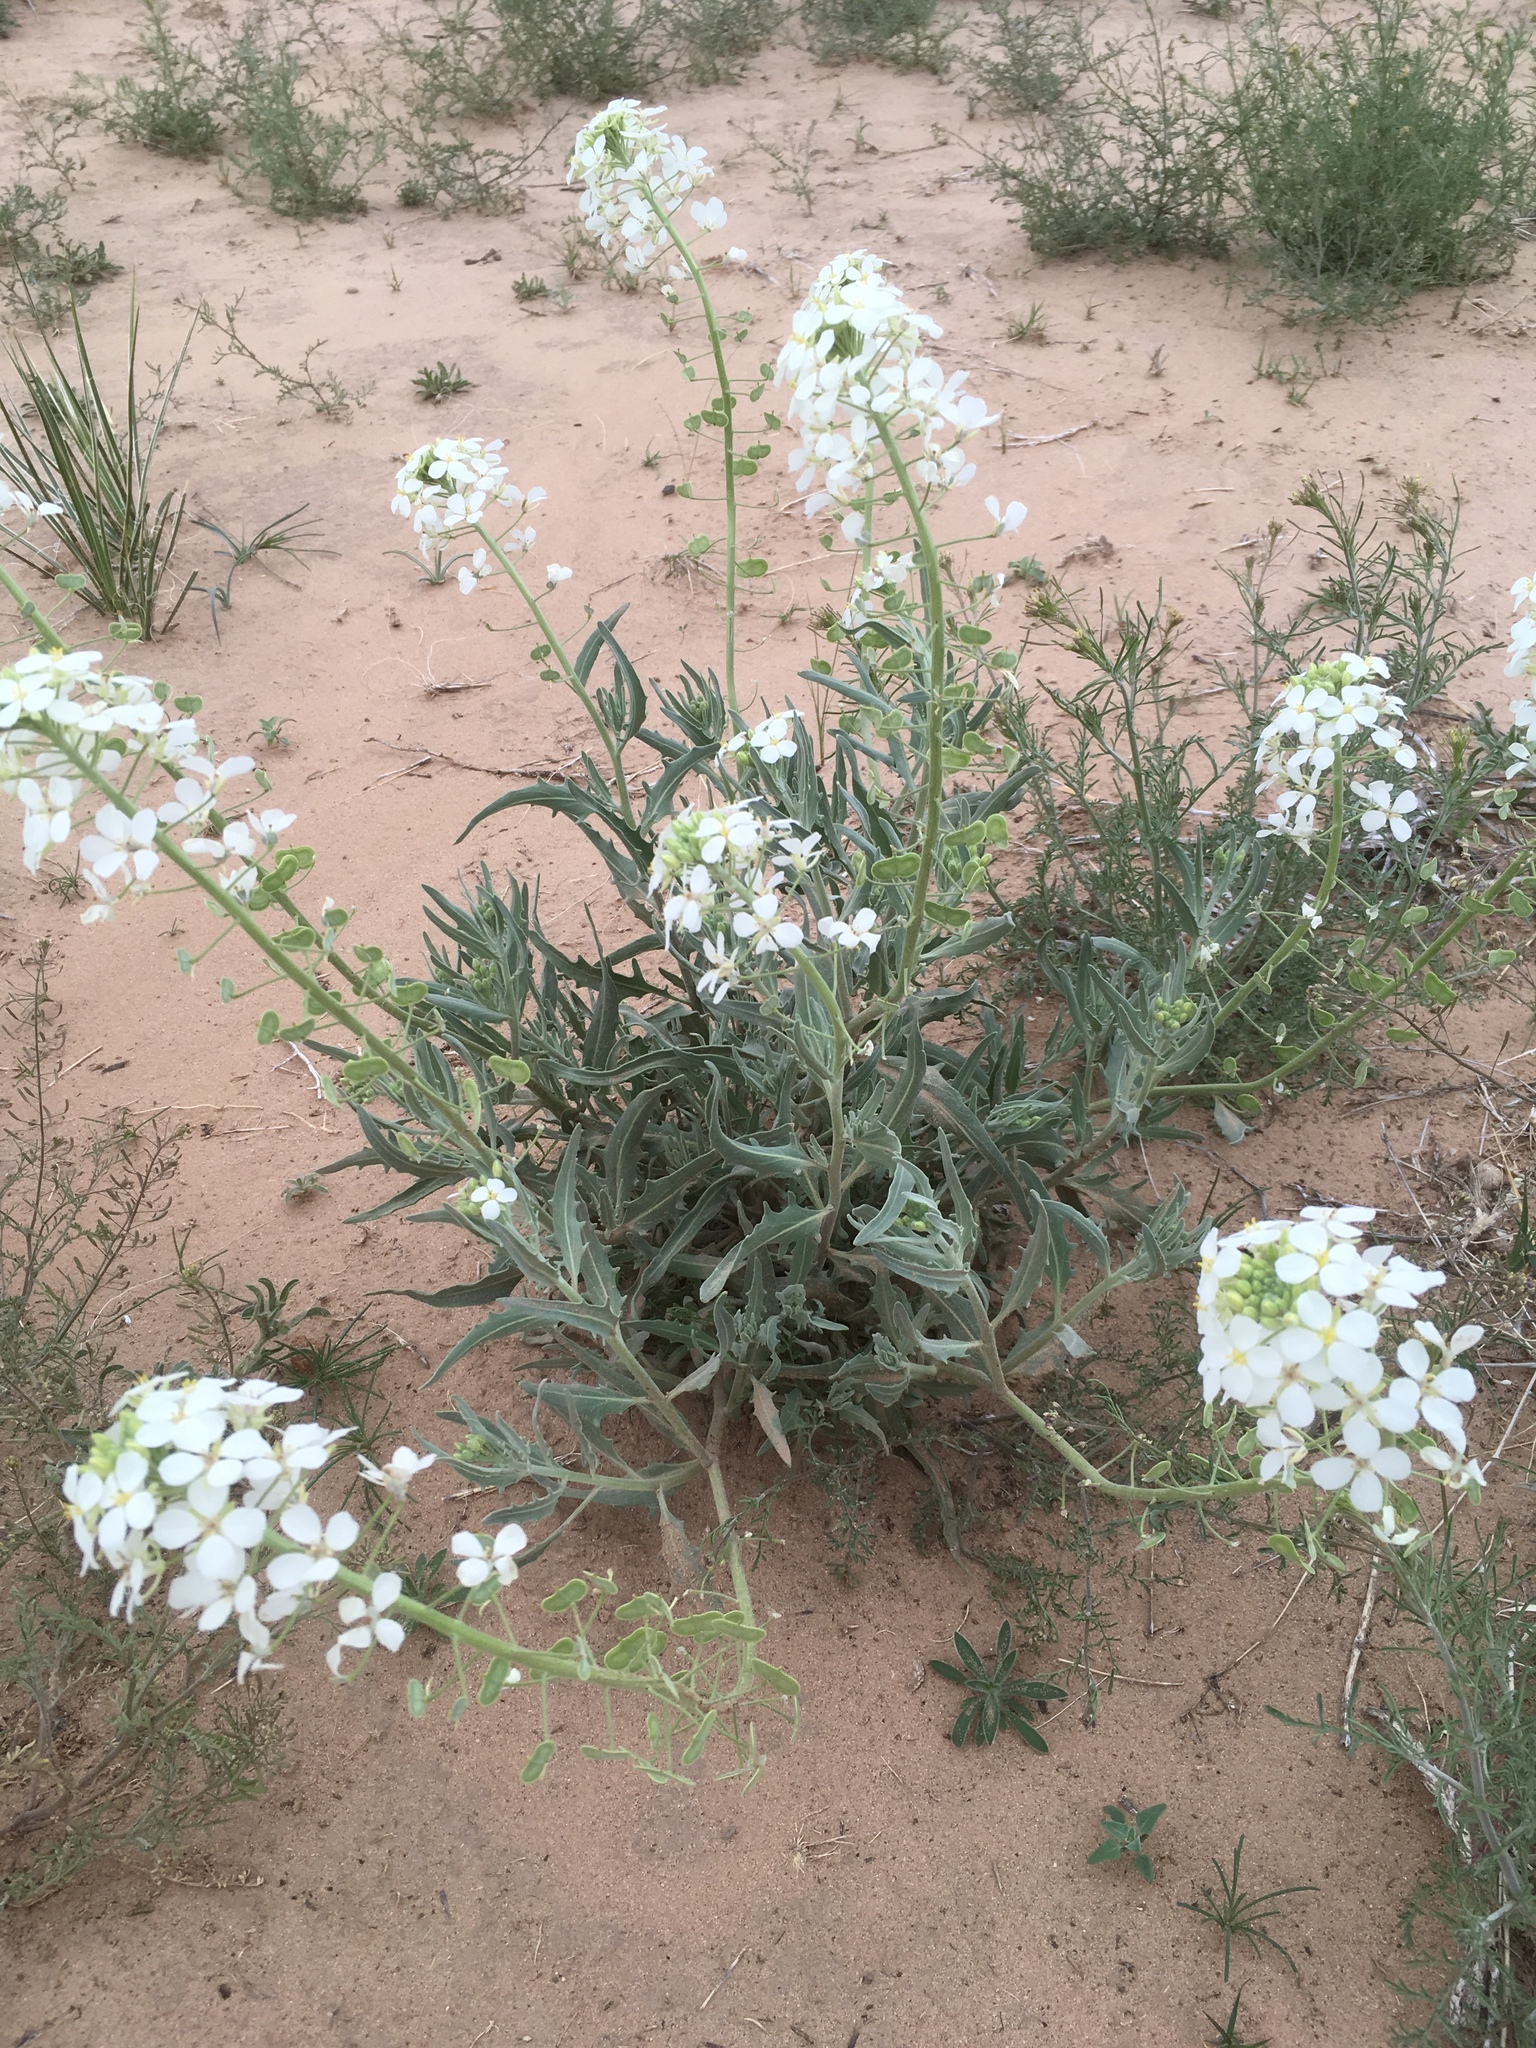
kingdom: Plantae
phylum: Tracheophyta
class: Magnoliopsida
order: Brassicales
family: Brassicaceae
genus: Dimorphocarpa
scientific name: Dimorphocarpa wislizenii
